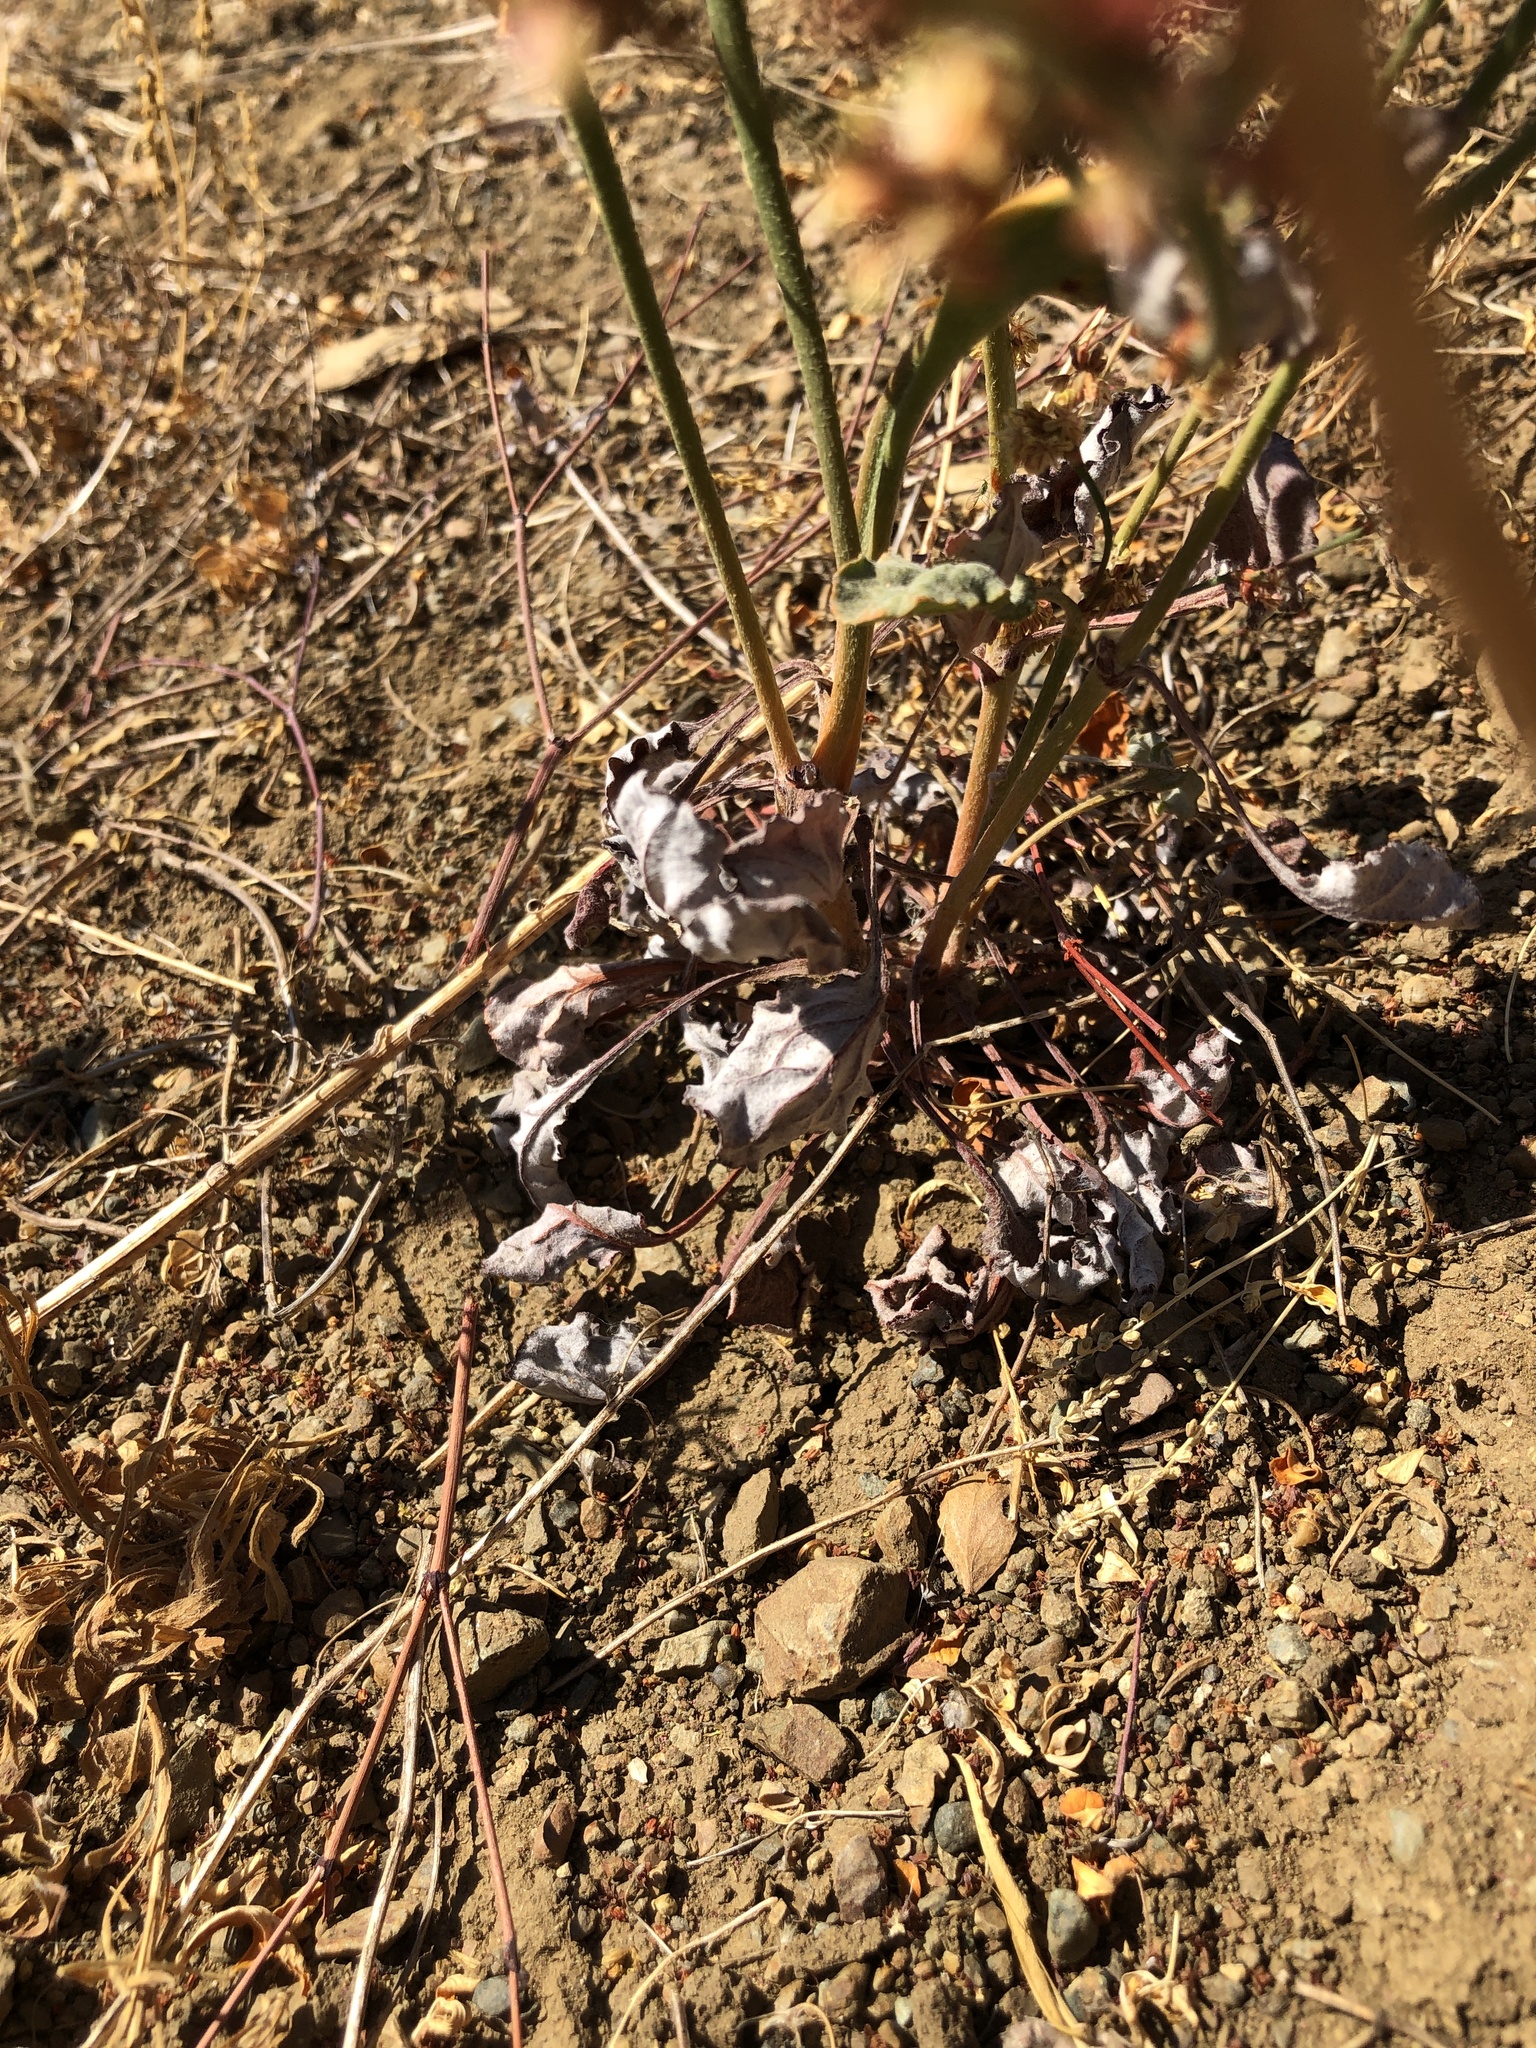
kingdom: Plantae
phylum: Tracheophyta
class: Magnoliopsida
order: Caryophyllales
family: Polygonaceae
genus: Eriogonum
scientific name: Eriogonum nudum
